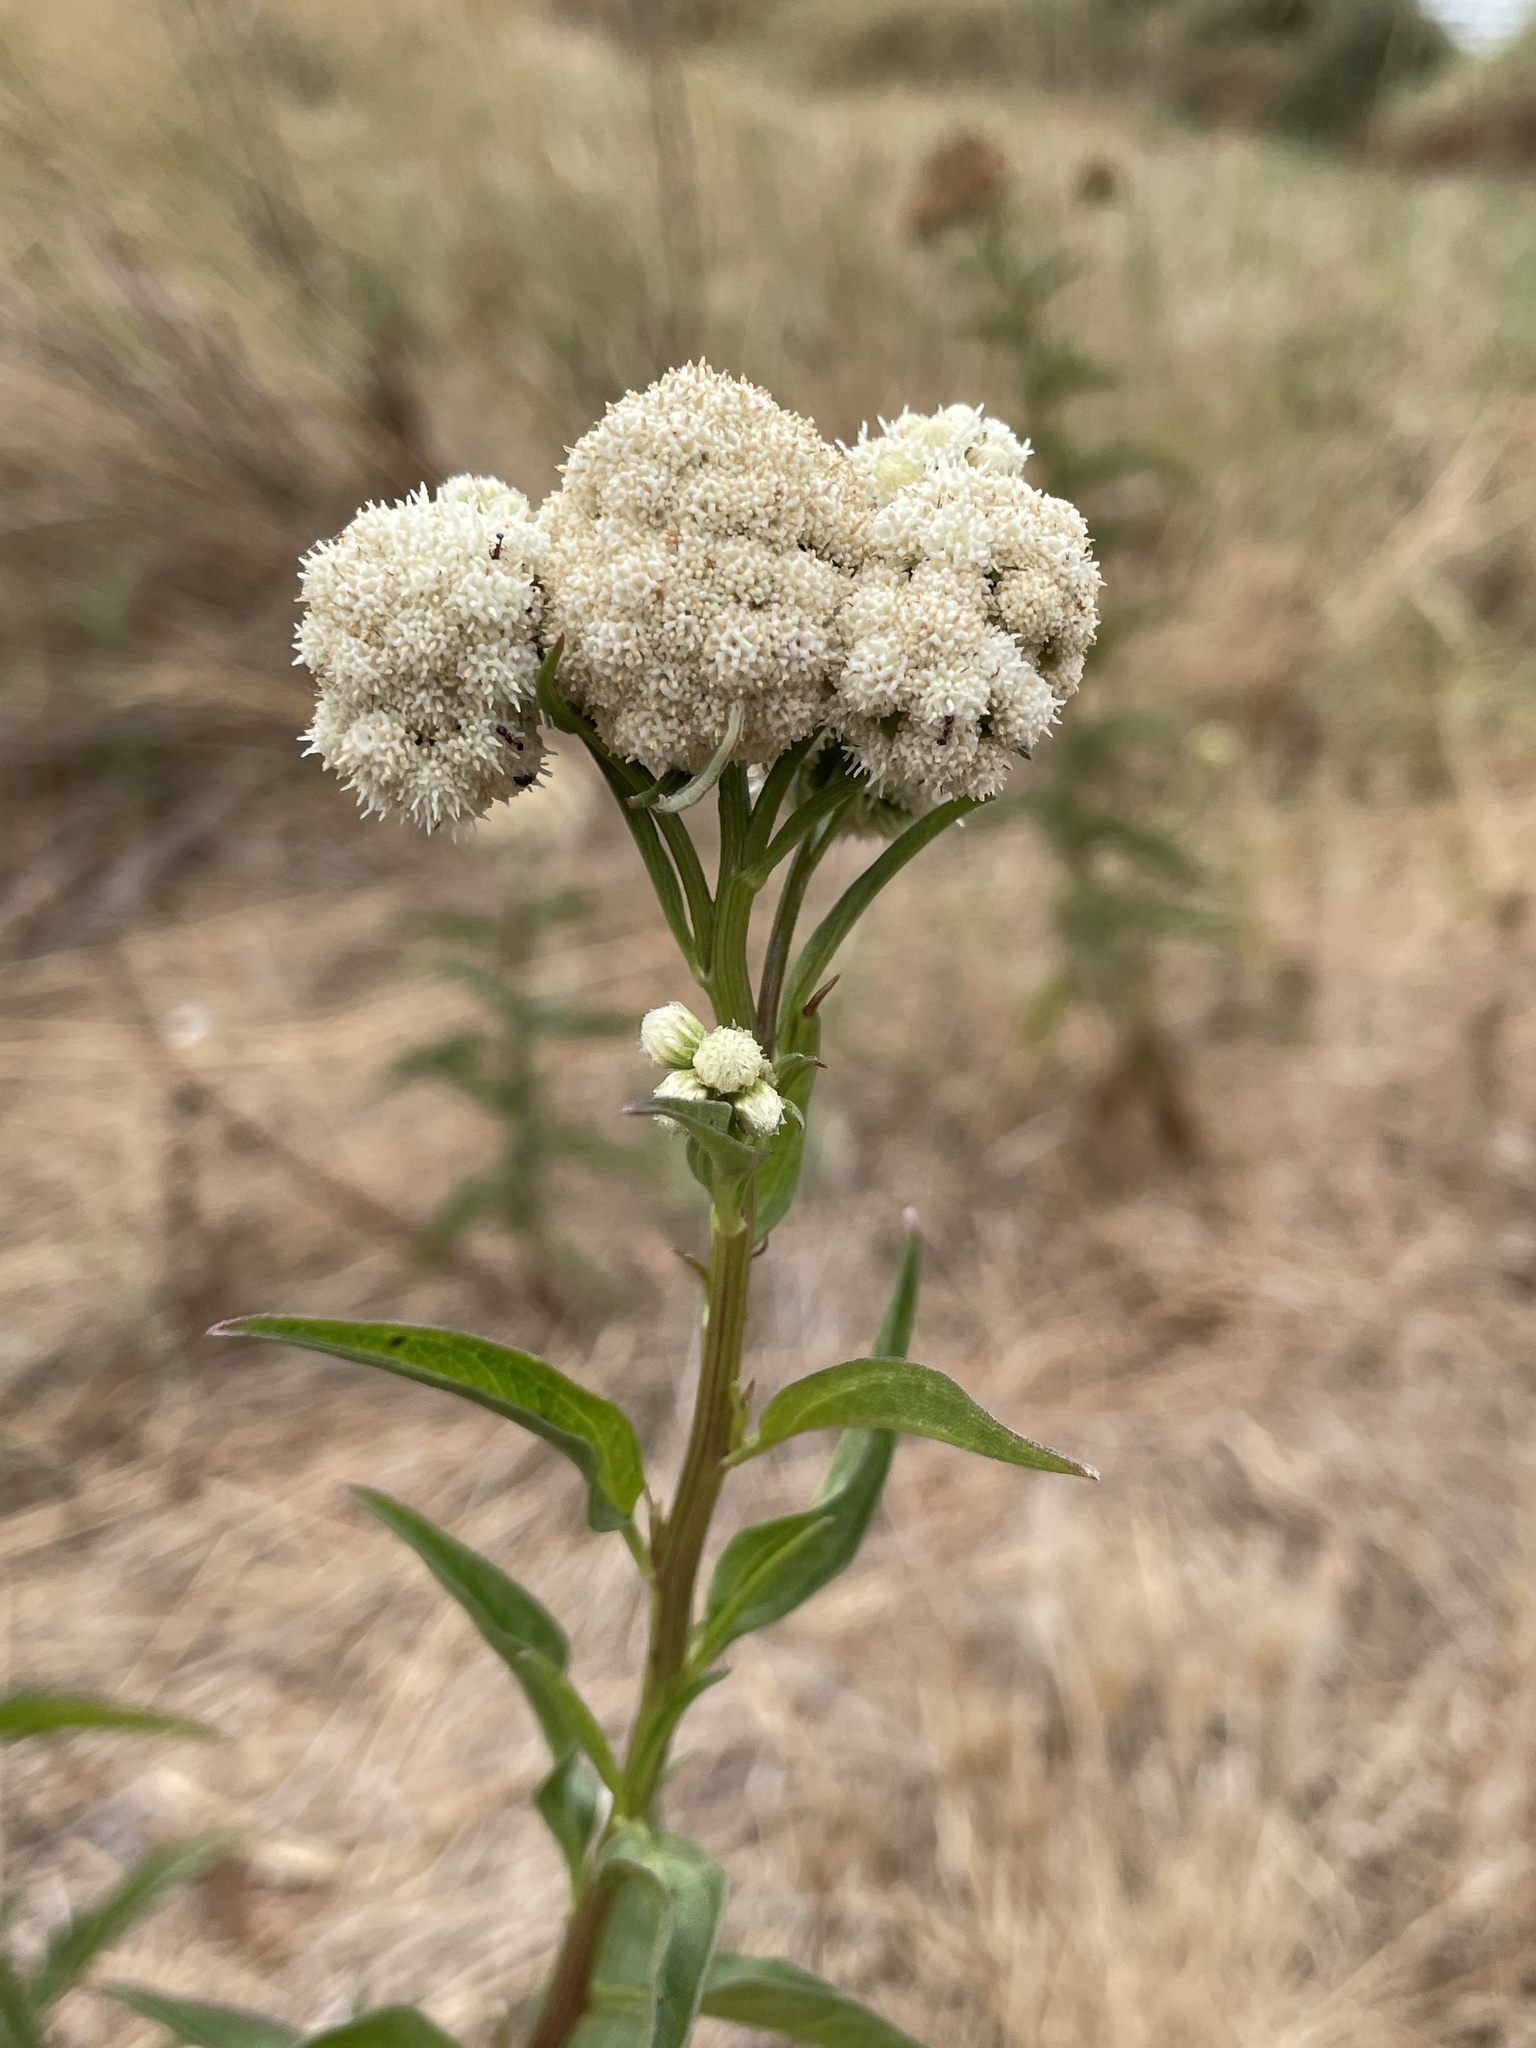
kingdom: Plantae
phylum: Tracheophyta
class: Magnoliopsida
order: Asterales
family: Asteraceae
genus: Baccharis
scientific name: Baccharis glutinosa
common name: Saltmarsh baccharis
